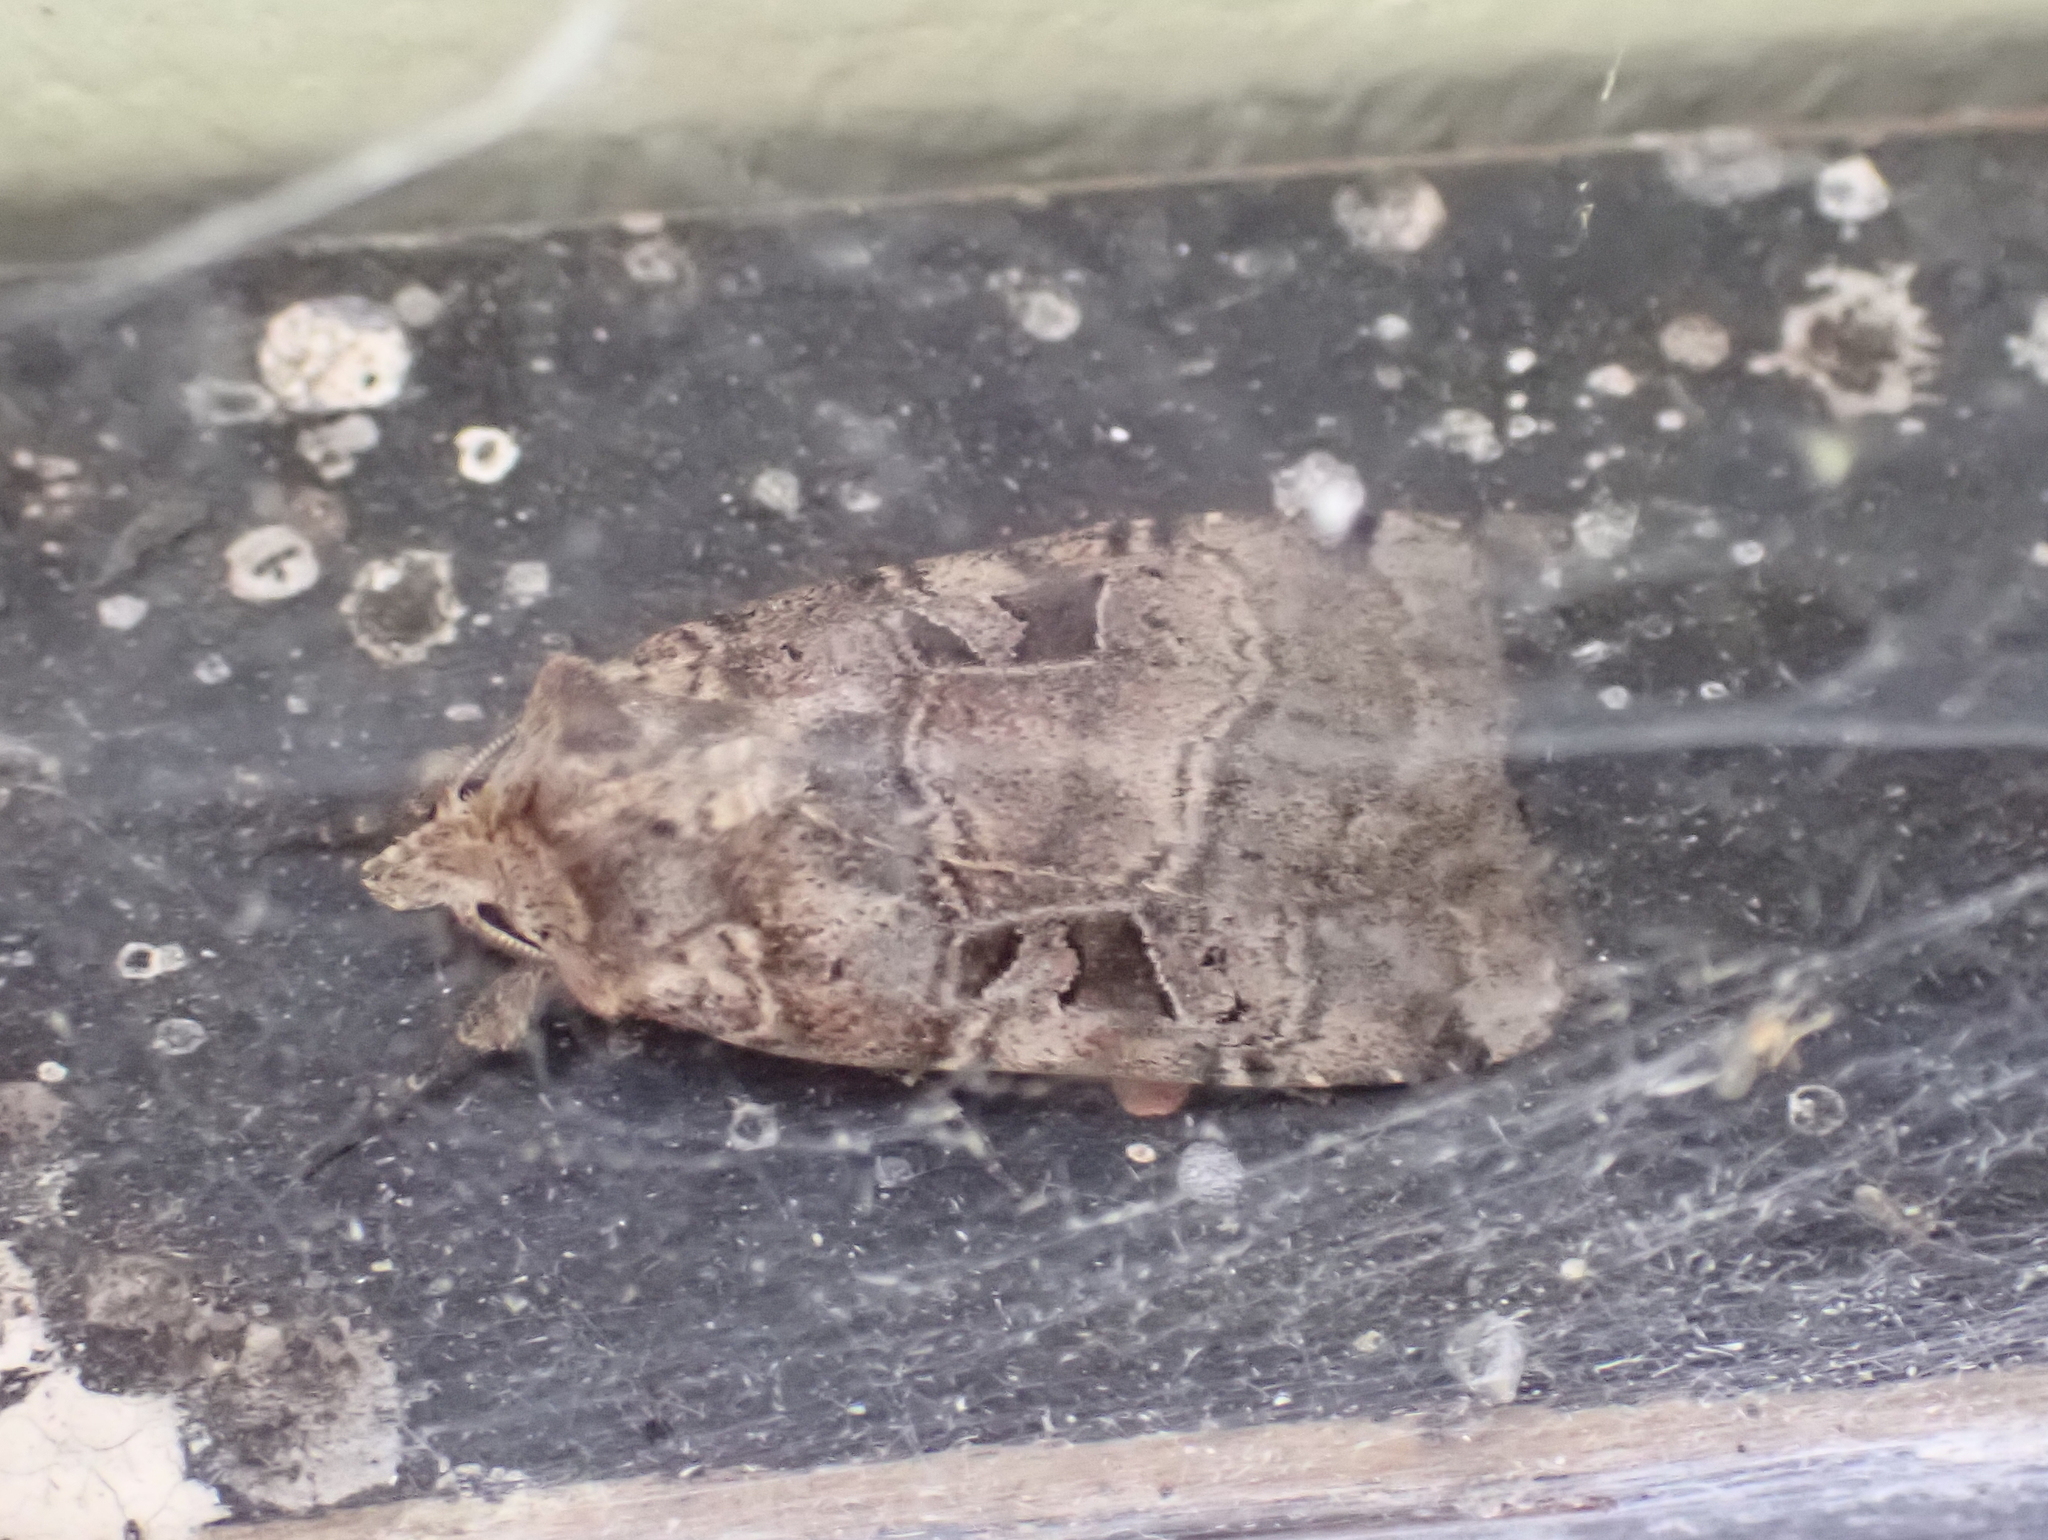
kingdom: Animalia
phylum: Arthropoda
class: Insecta
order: Lepidoptera
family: Noctuidae
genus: Xestia
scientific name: Xestia normaniana
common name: Norman's dart moth
